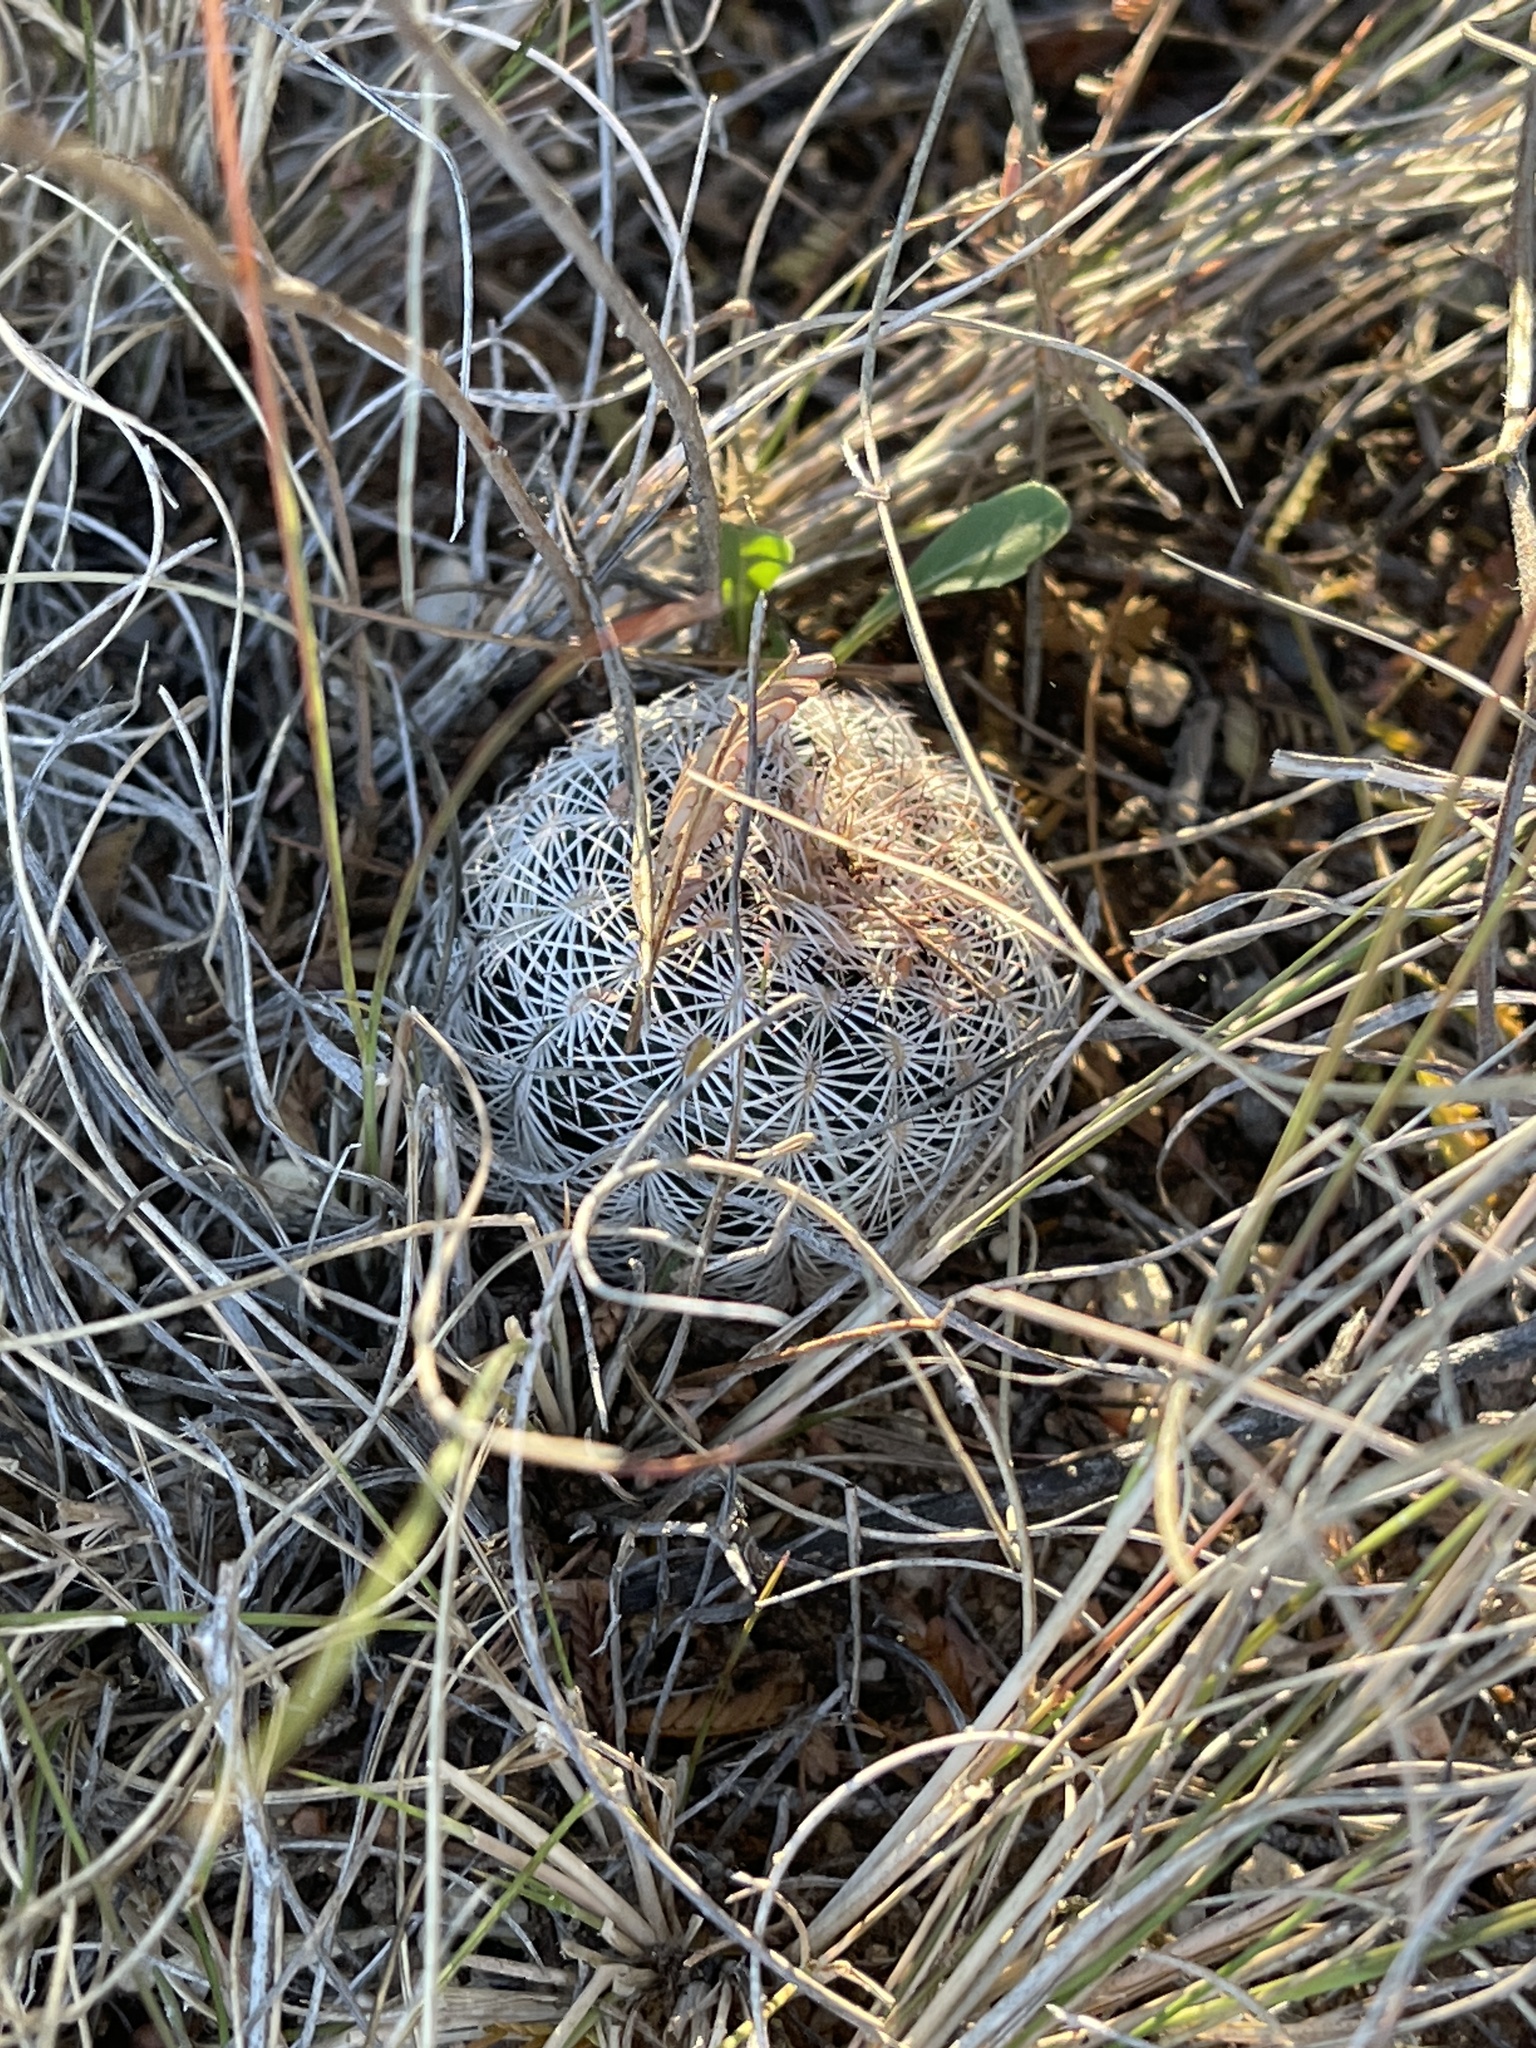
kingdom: Plantae
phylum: Tracheophyta
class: Magnoliopsida
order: Caryophyllales
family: Cactaceae
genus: Echinocereus
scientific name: Echinocereus reichenbachii
